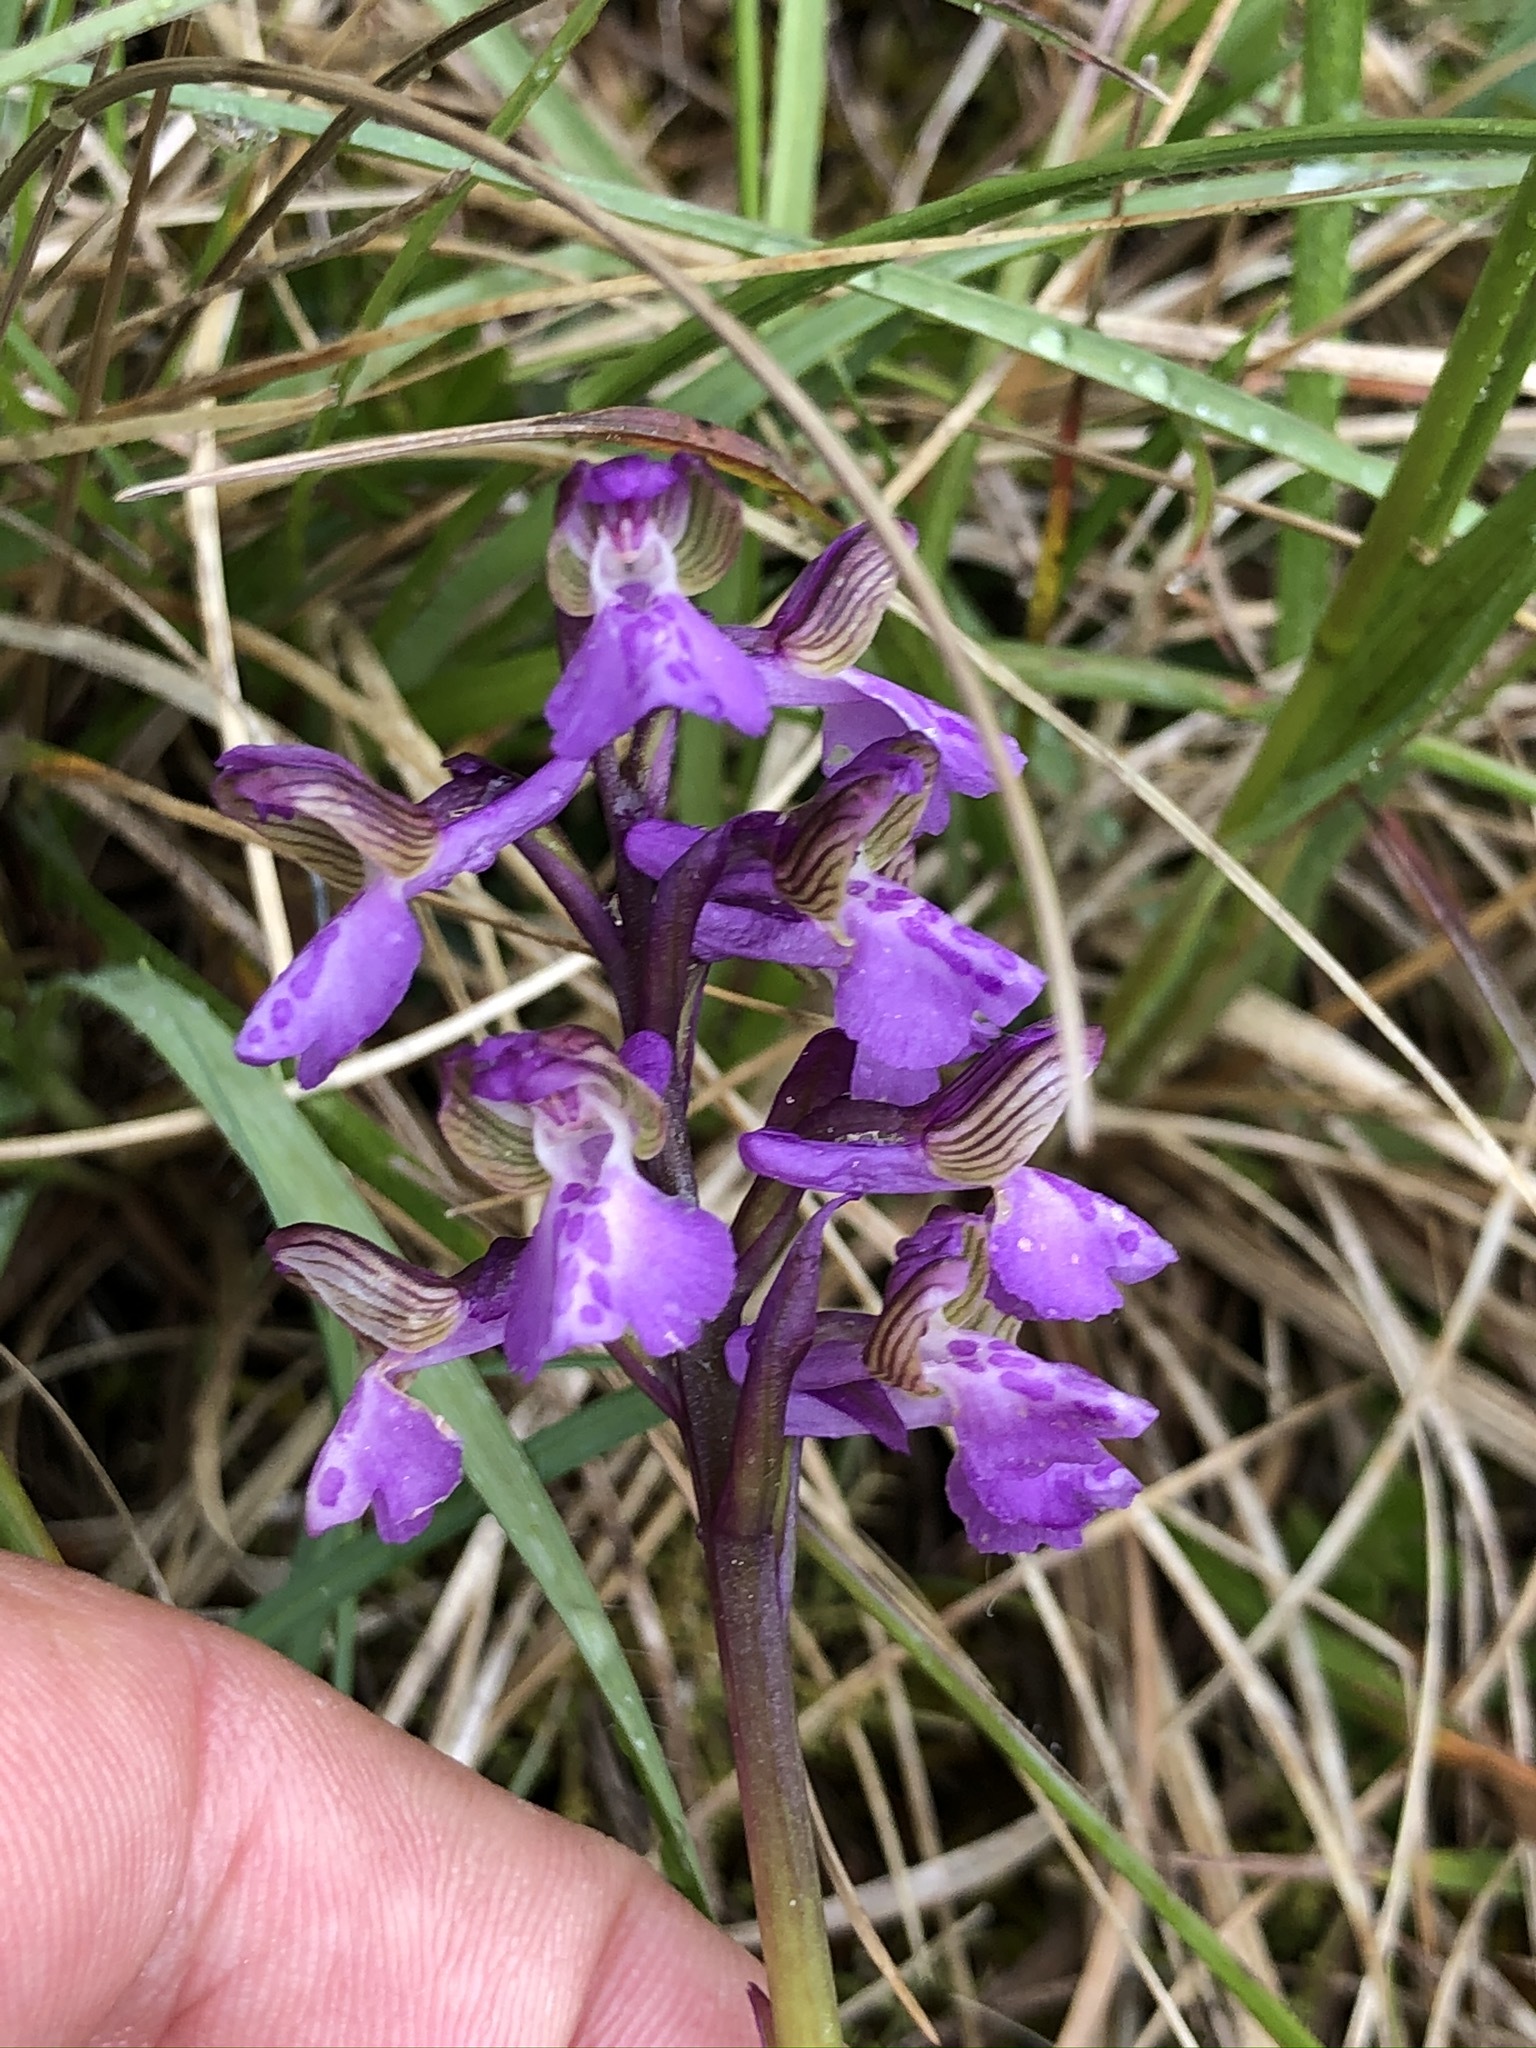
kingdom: Plantae
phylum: Tracheophyta
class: Liliopsida
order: Asparagales
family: Orchidaceae
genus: Anacamptis
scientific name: Anacamptis morio
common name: Green-winged orchid
